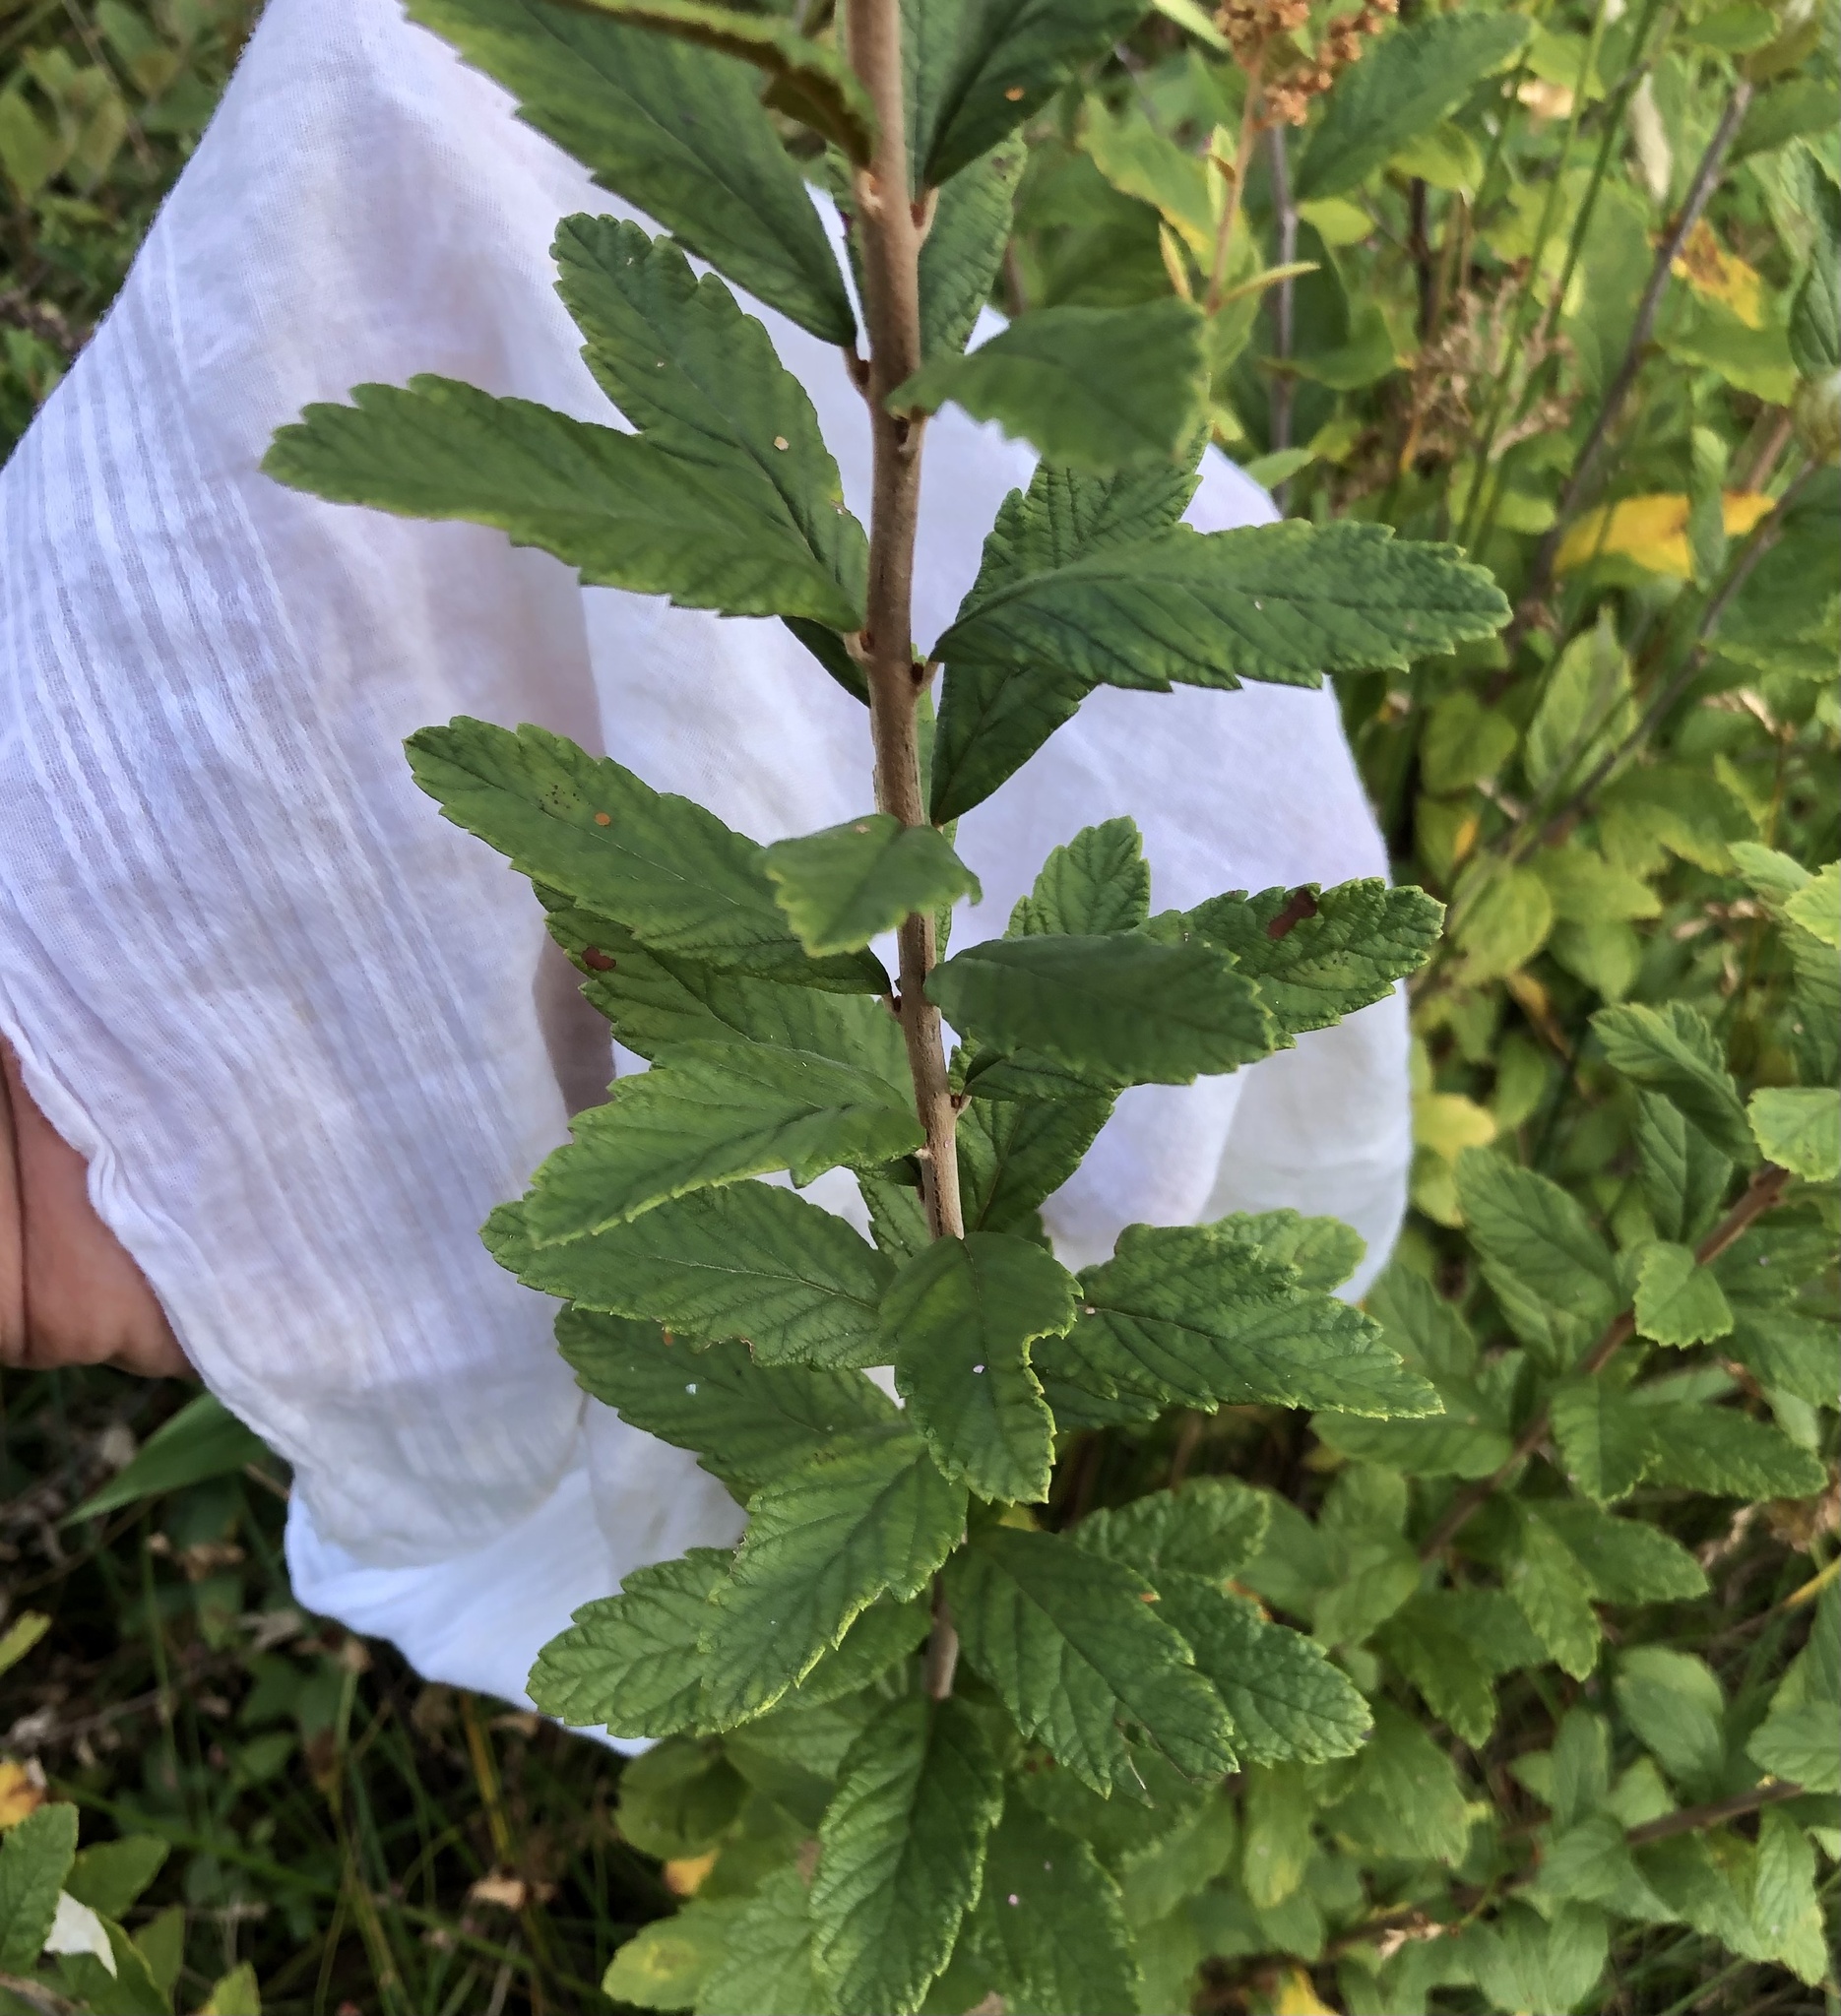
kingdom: Plantae
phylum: Tracheophyta
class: Magnoliopsida
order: Rosales
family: Rosaceae
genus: Spiraea
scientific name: Spiraea tomentosa
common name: Hardhack
